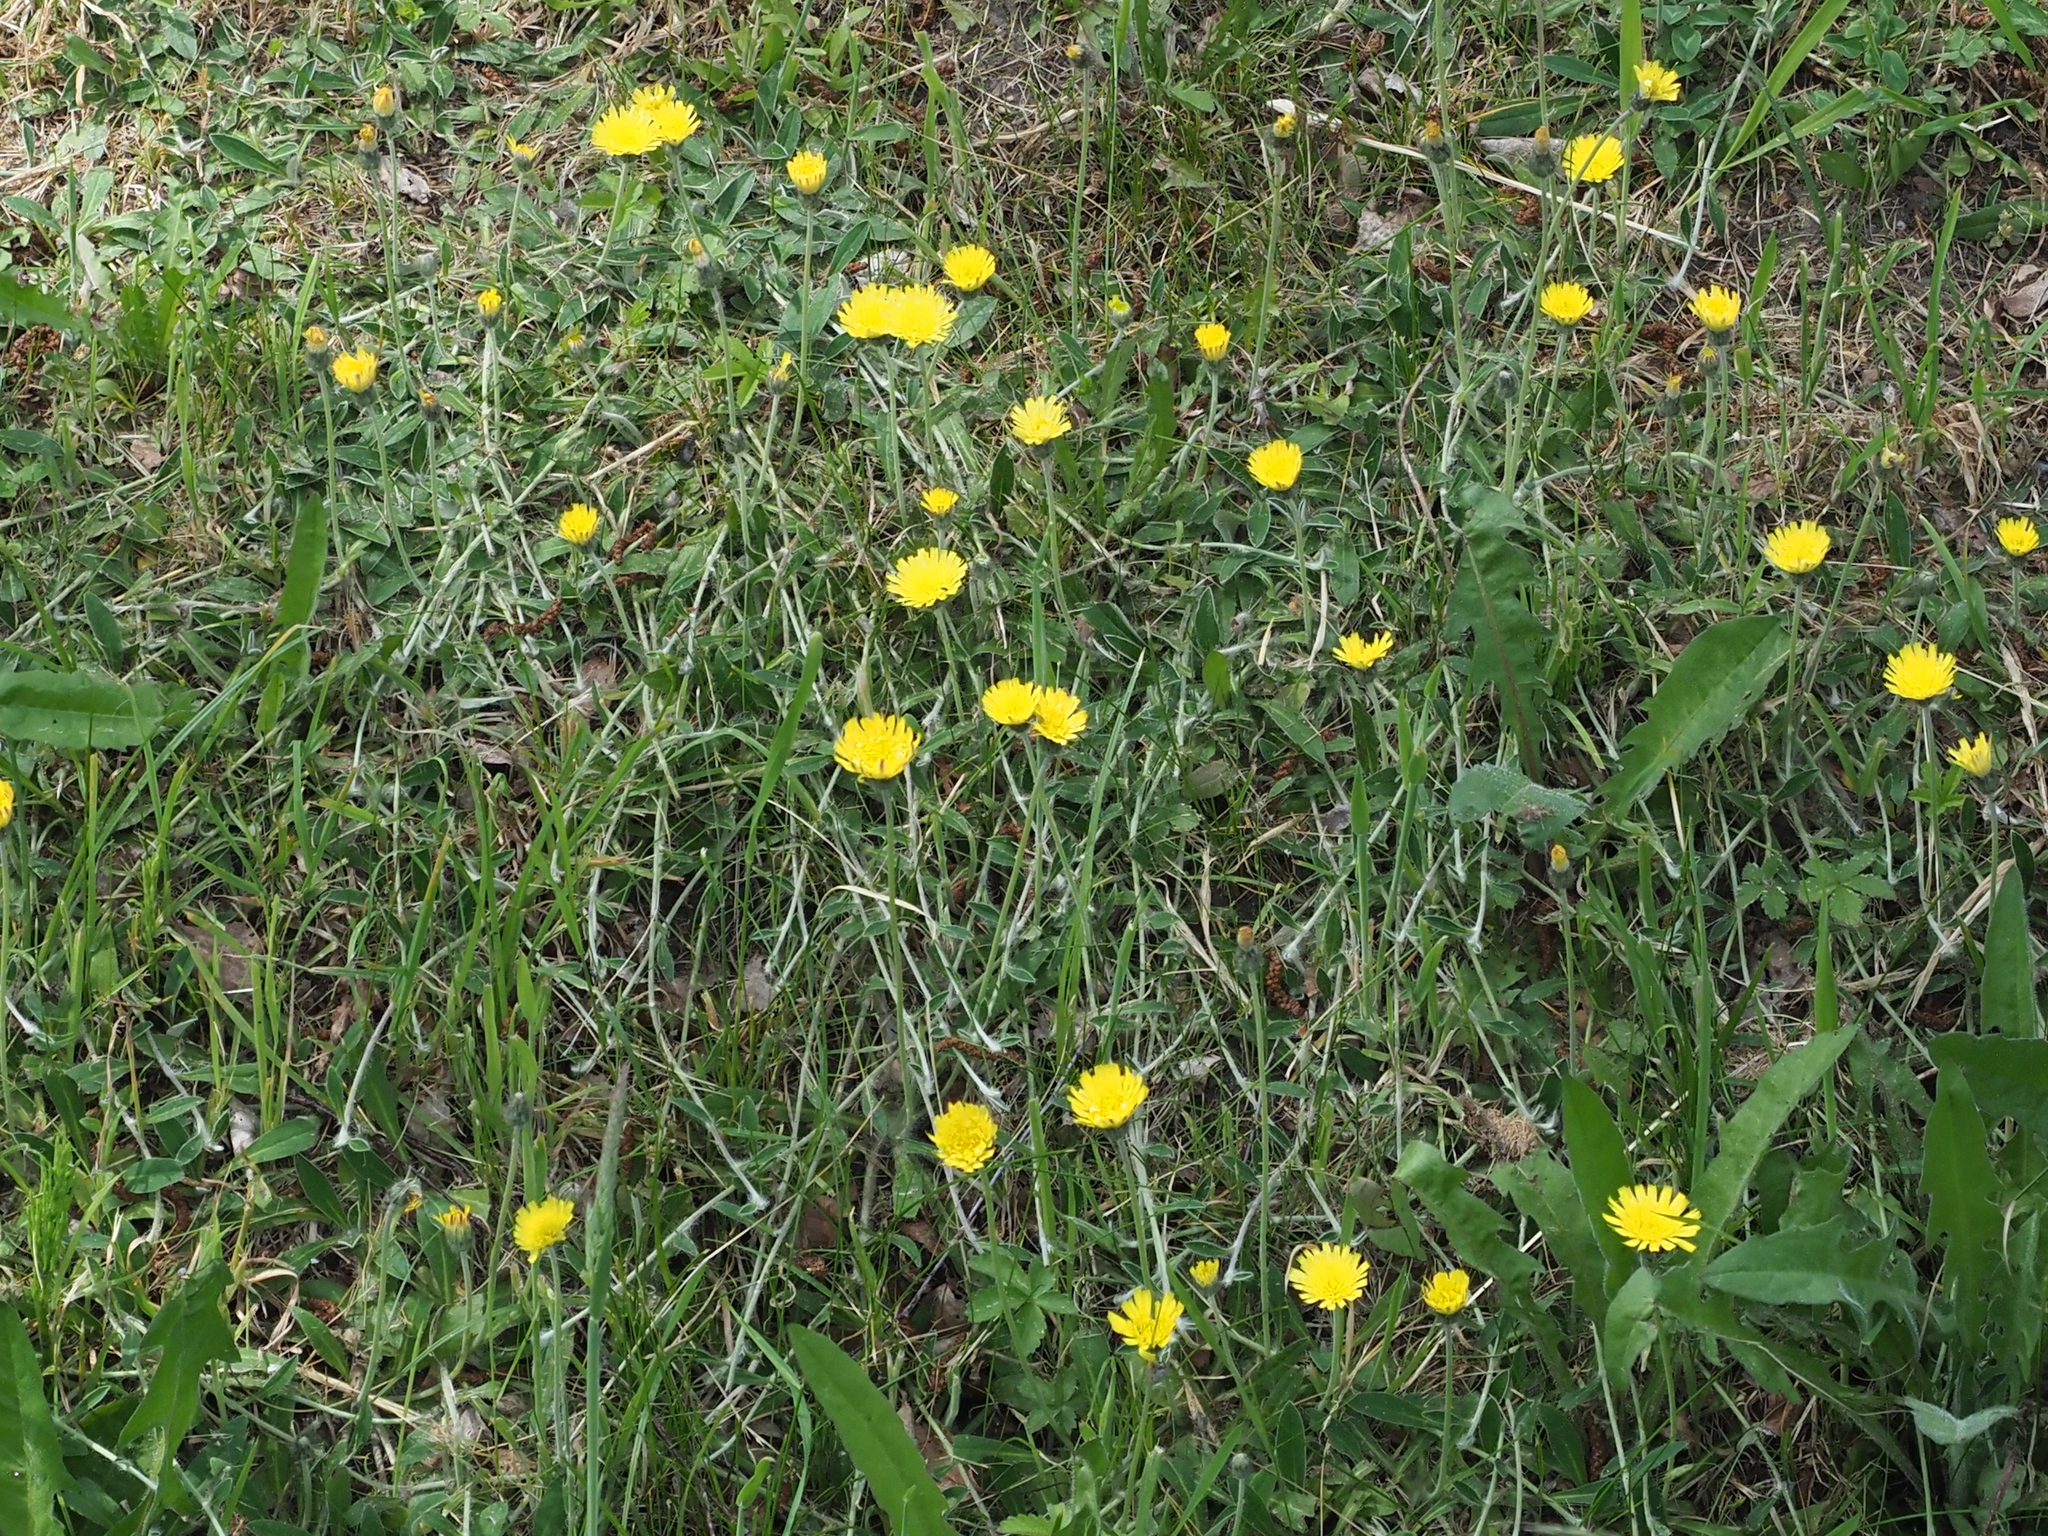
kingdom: Plantae
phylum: Tracheophyta
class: Magnoliopsida
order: Asterales
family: Asteraceae
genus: Pilosella
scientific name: Pilosella officinarum
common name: Mouse-ear hawkweed
